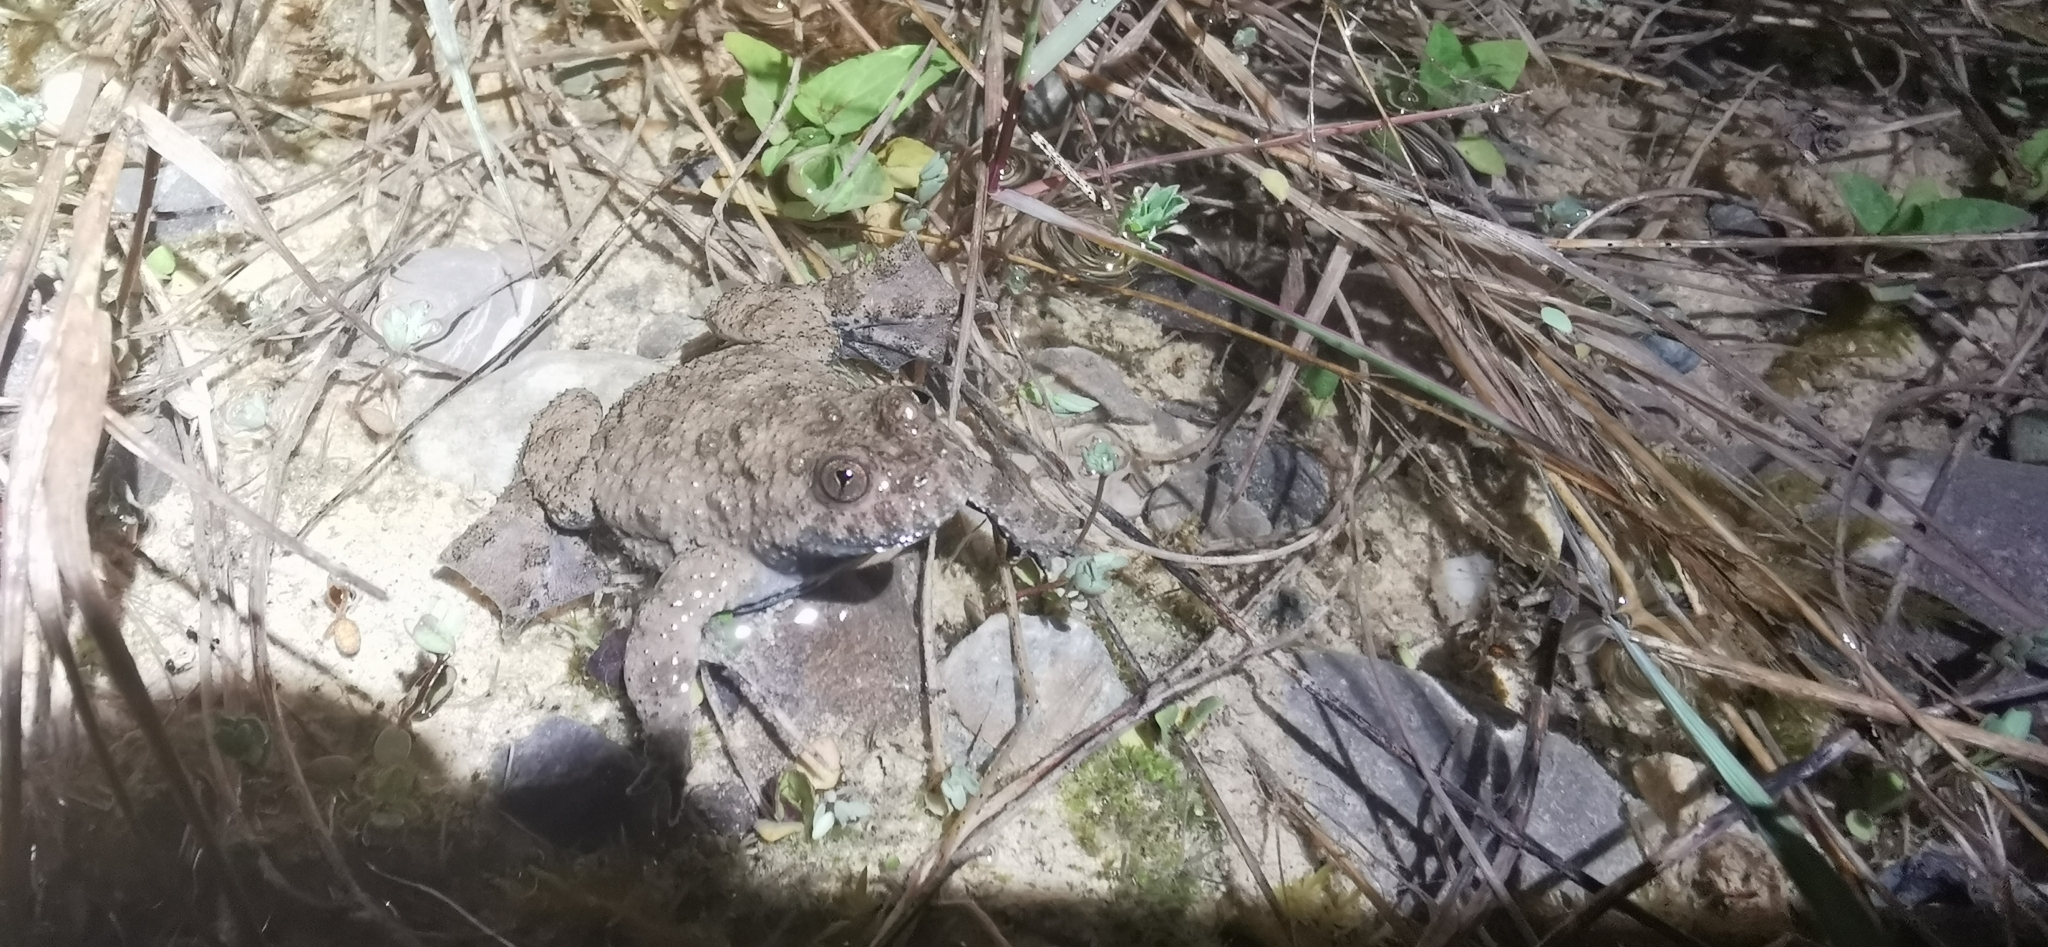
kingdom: Animalia
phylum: Chordata
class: Amphibia
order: Anura
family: Bombinatoridae
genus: Bombina
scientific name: Bombina variegata
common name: Yellow-bellied toad
